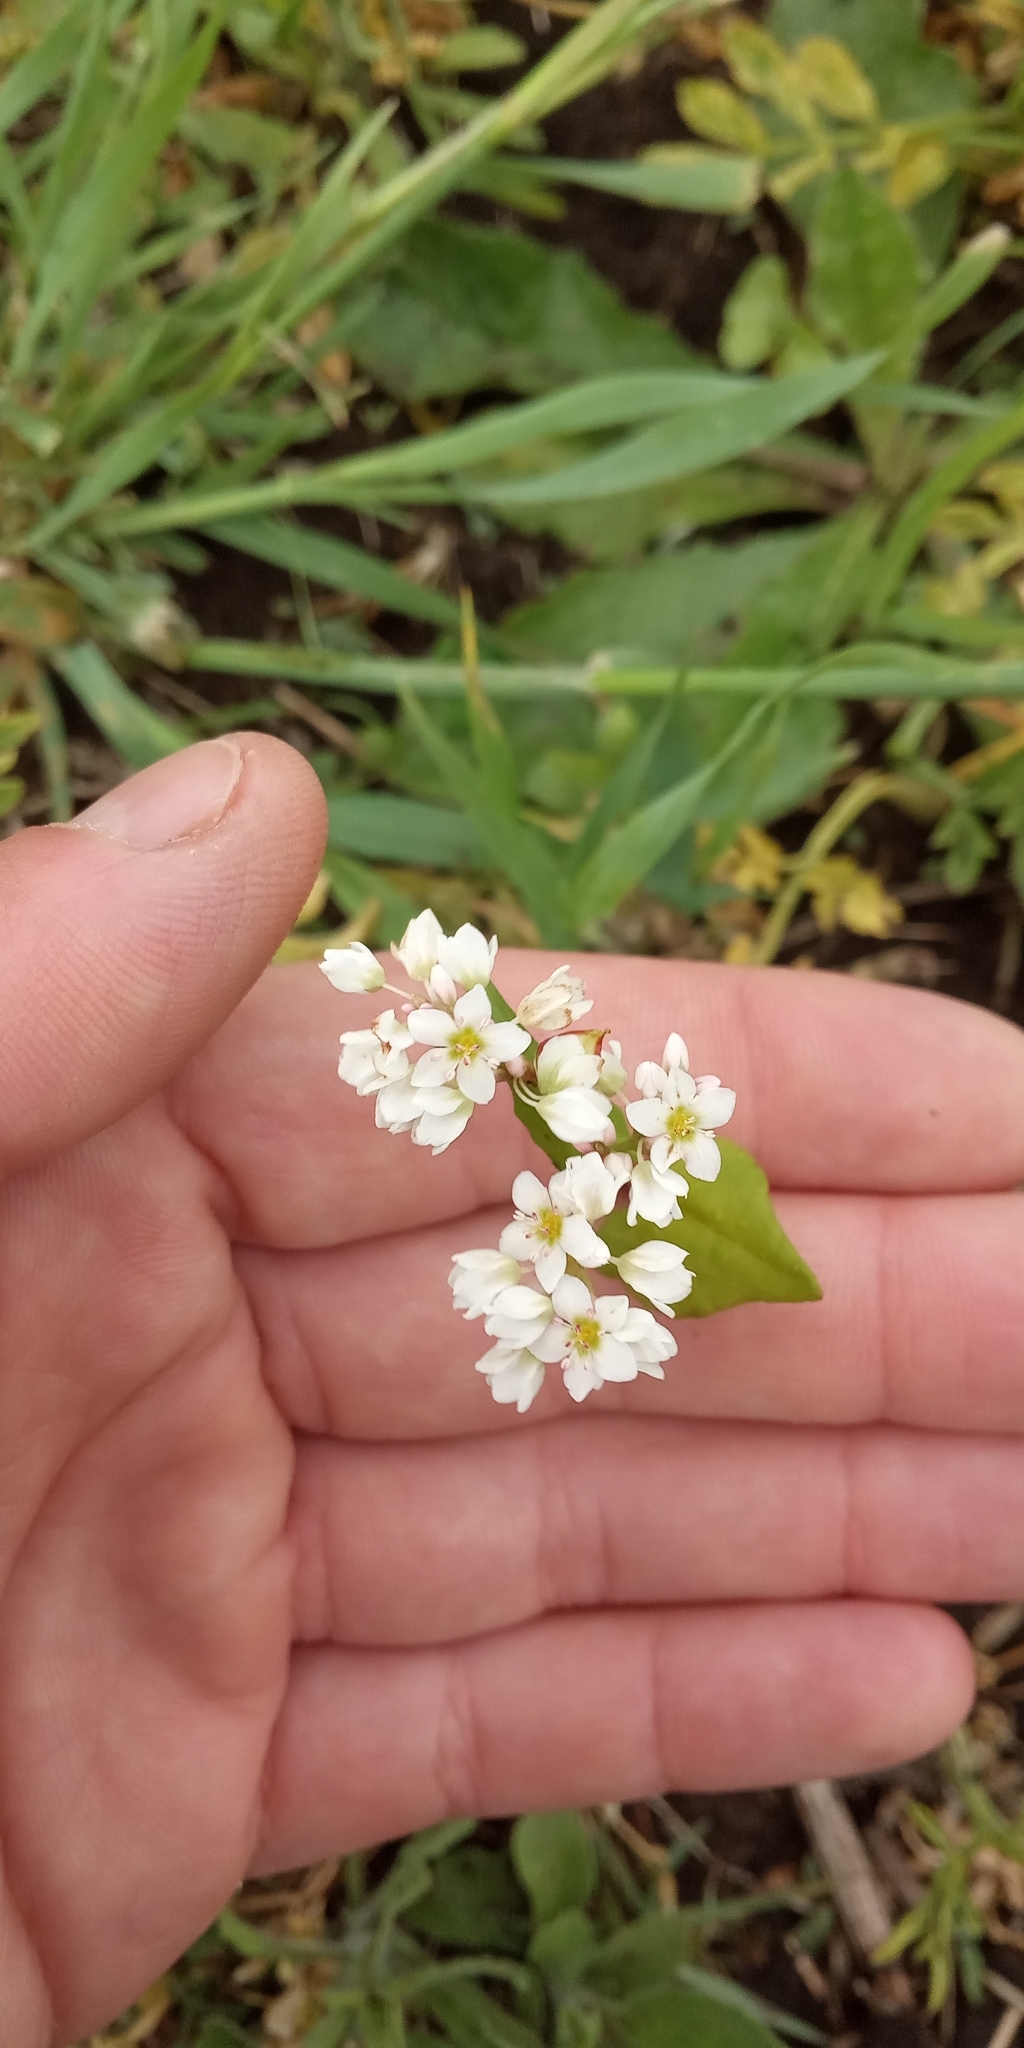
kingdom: Plantae
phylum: Tracheophyta
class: Magnoliopsida
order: Caryophyllales
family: Polygonaceae
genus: Fagopyrum
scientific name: Fagopyrum esculentum
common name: Buckwheat
